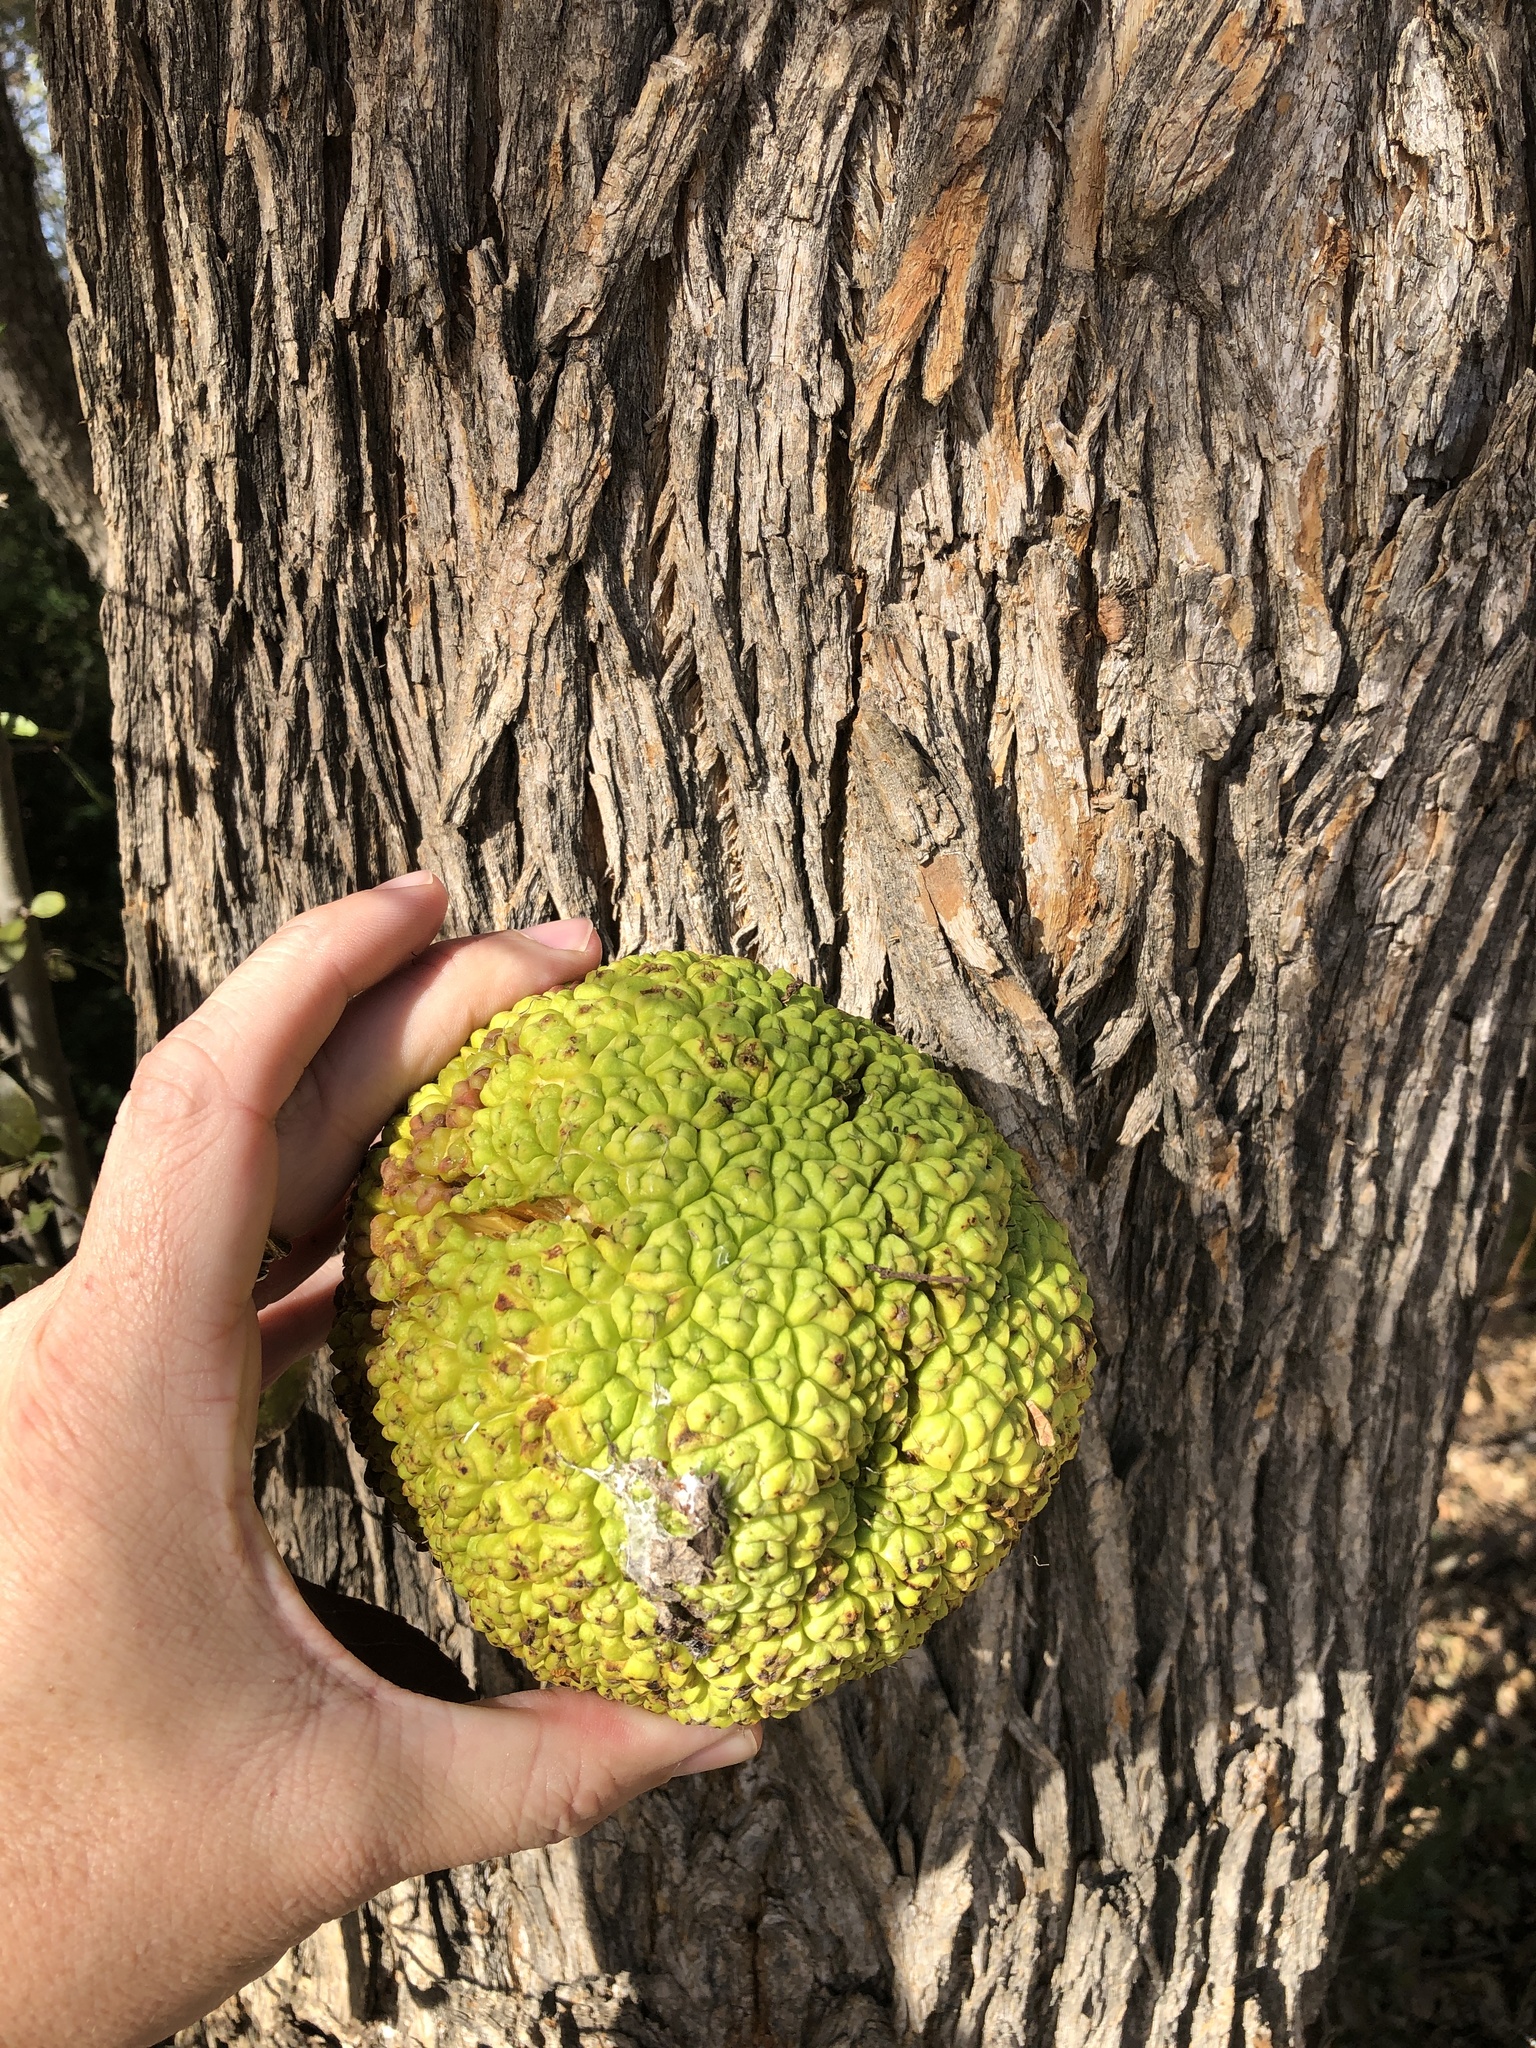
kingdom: Plantae
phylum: Tracheophyta
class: Magnoliopsida
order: Rosales
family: Moraceae
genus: Maclura
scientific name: Maclura pomifera
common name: Osage-orange
